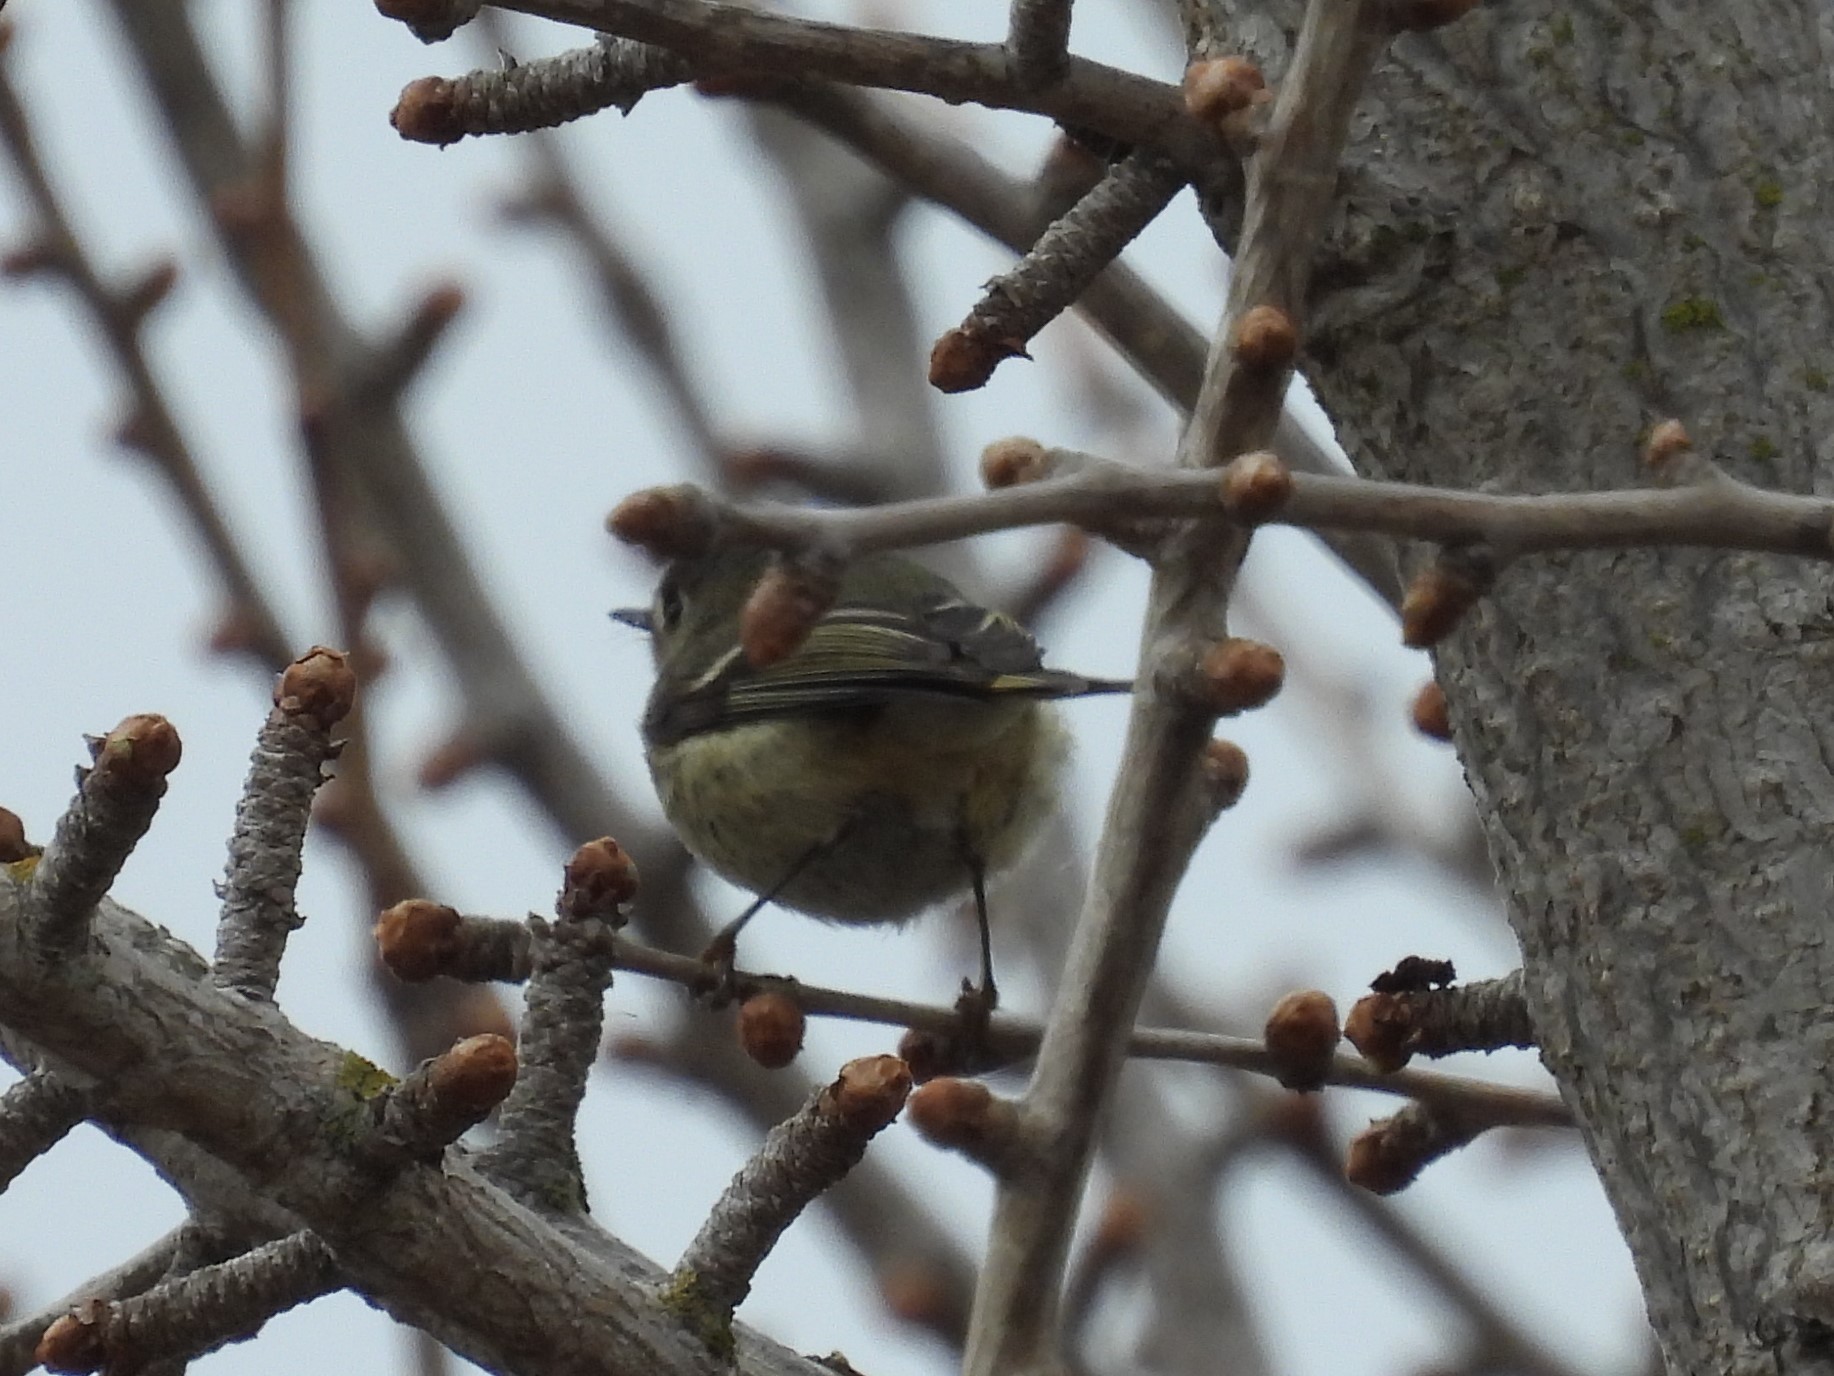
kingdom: Animalia
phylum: Chordata
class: Aves
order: Passeriformes
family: Regulidae
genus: Regulus
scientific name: Regulus calendula
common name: Ruby-crowned kinglet
